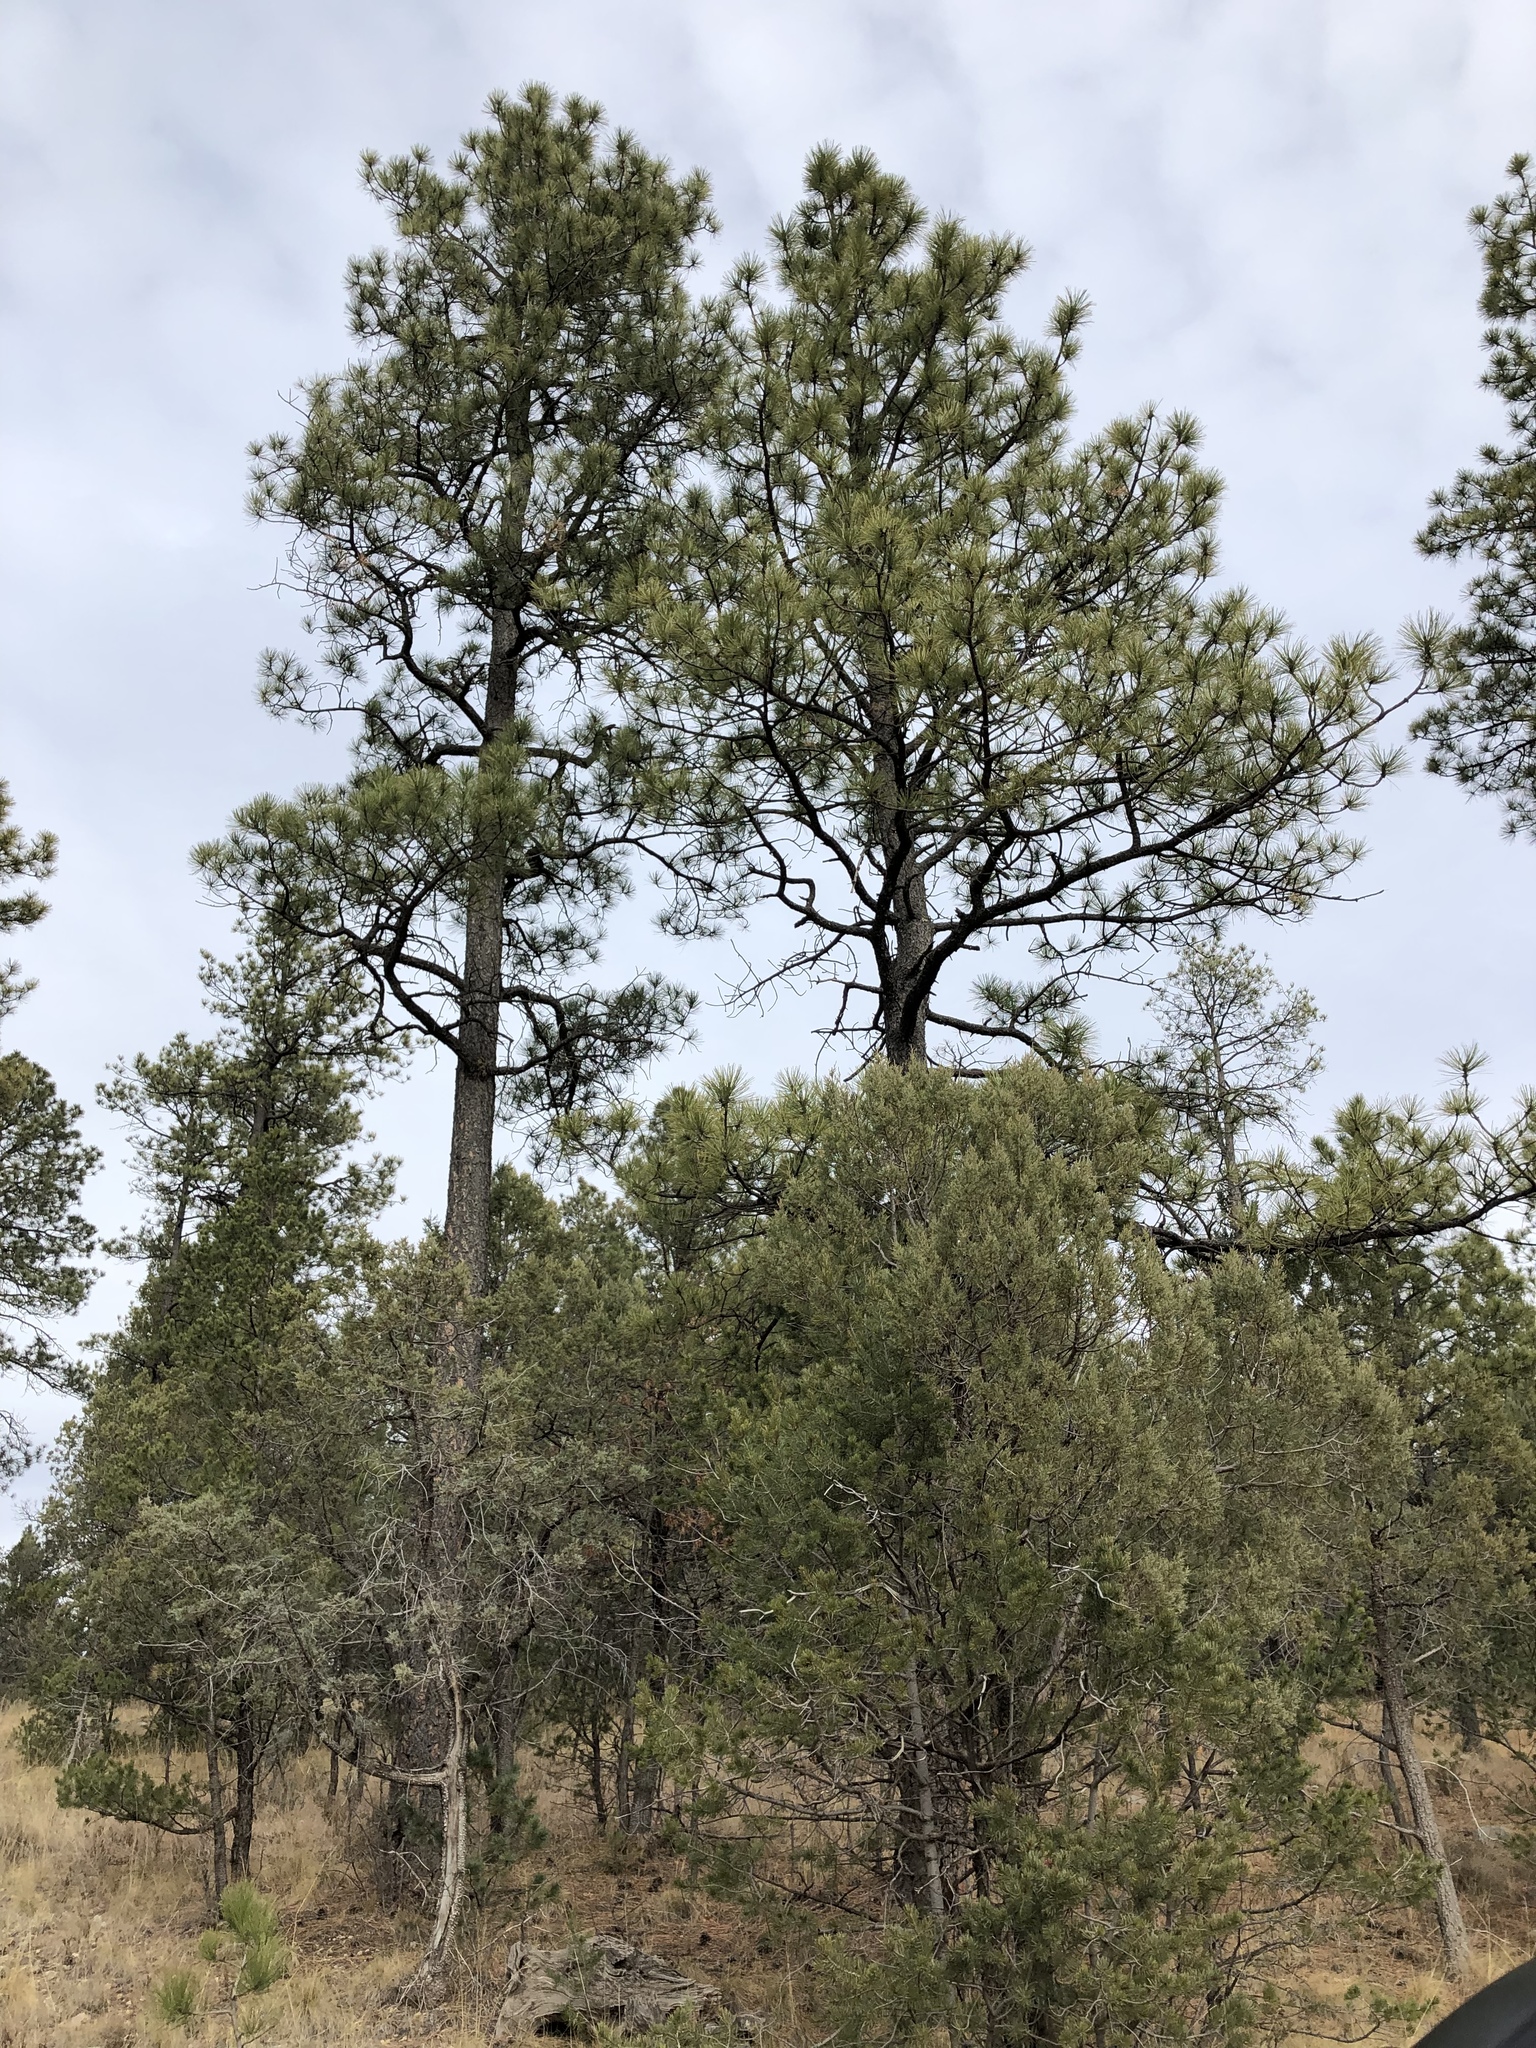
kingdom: Plantae
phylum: Tracheophyta
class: Pinopsida
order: Pinales
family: Pinaceae
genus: Pinus
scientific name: Pinus ponderosa
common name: Western yellow-pine
